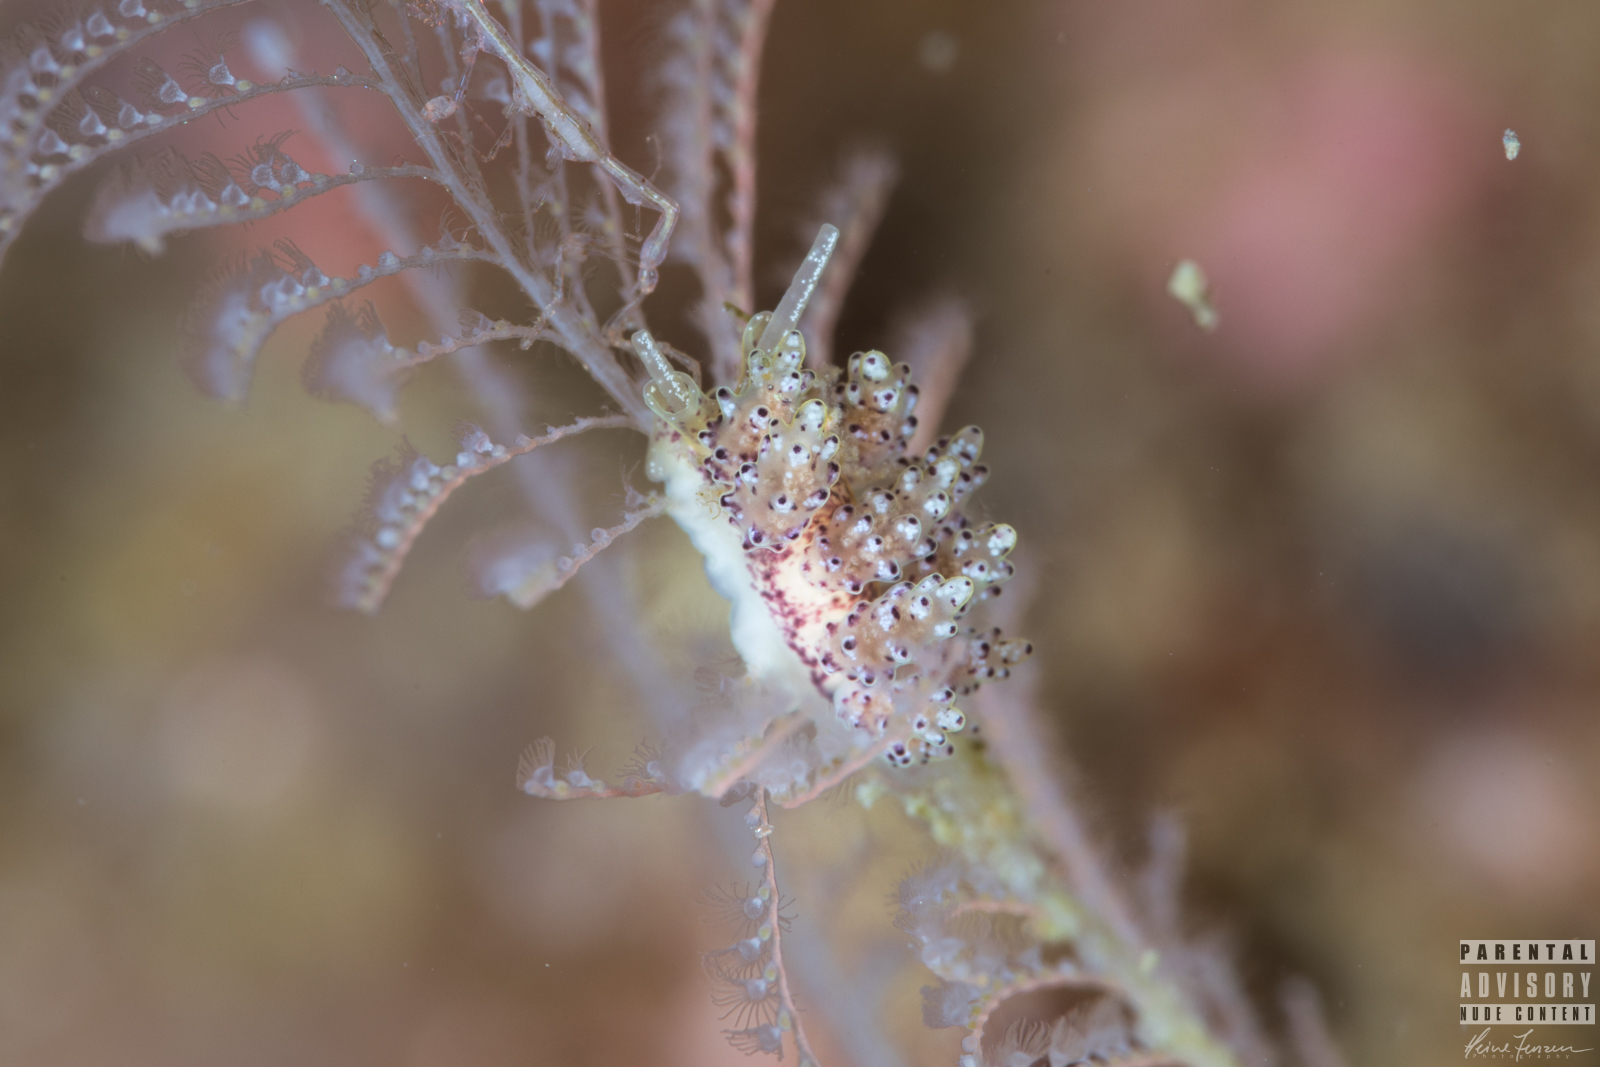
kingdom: Animalia
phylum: Mollusca
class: Gastropoda
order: Nudibranchia
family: Dotidae
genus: Doto
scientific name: Doto coronata
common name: Coronate doto
